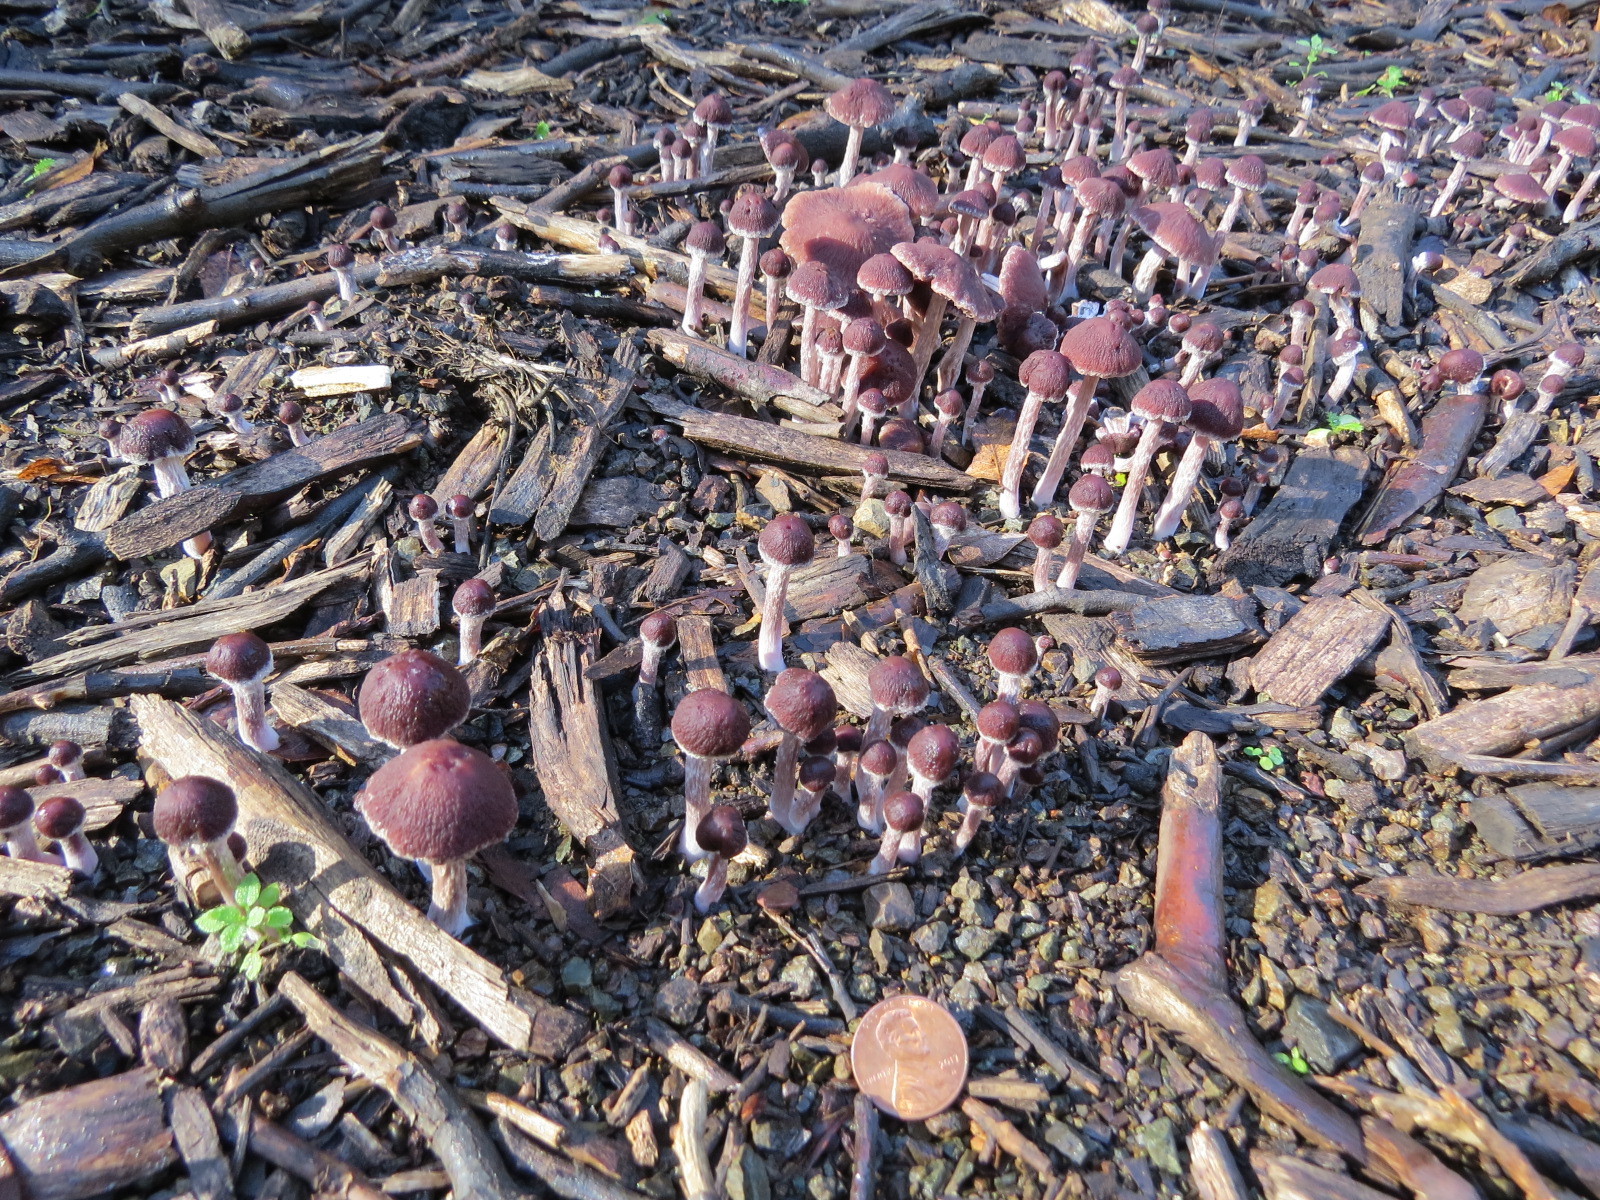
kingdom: Fungi
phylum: Basidiomycota
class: Agaricomycetes
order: Agaricales
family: Psathyrellaceae
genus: Psathyrella
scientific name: Psathyrella bipellis
